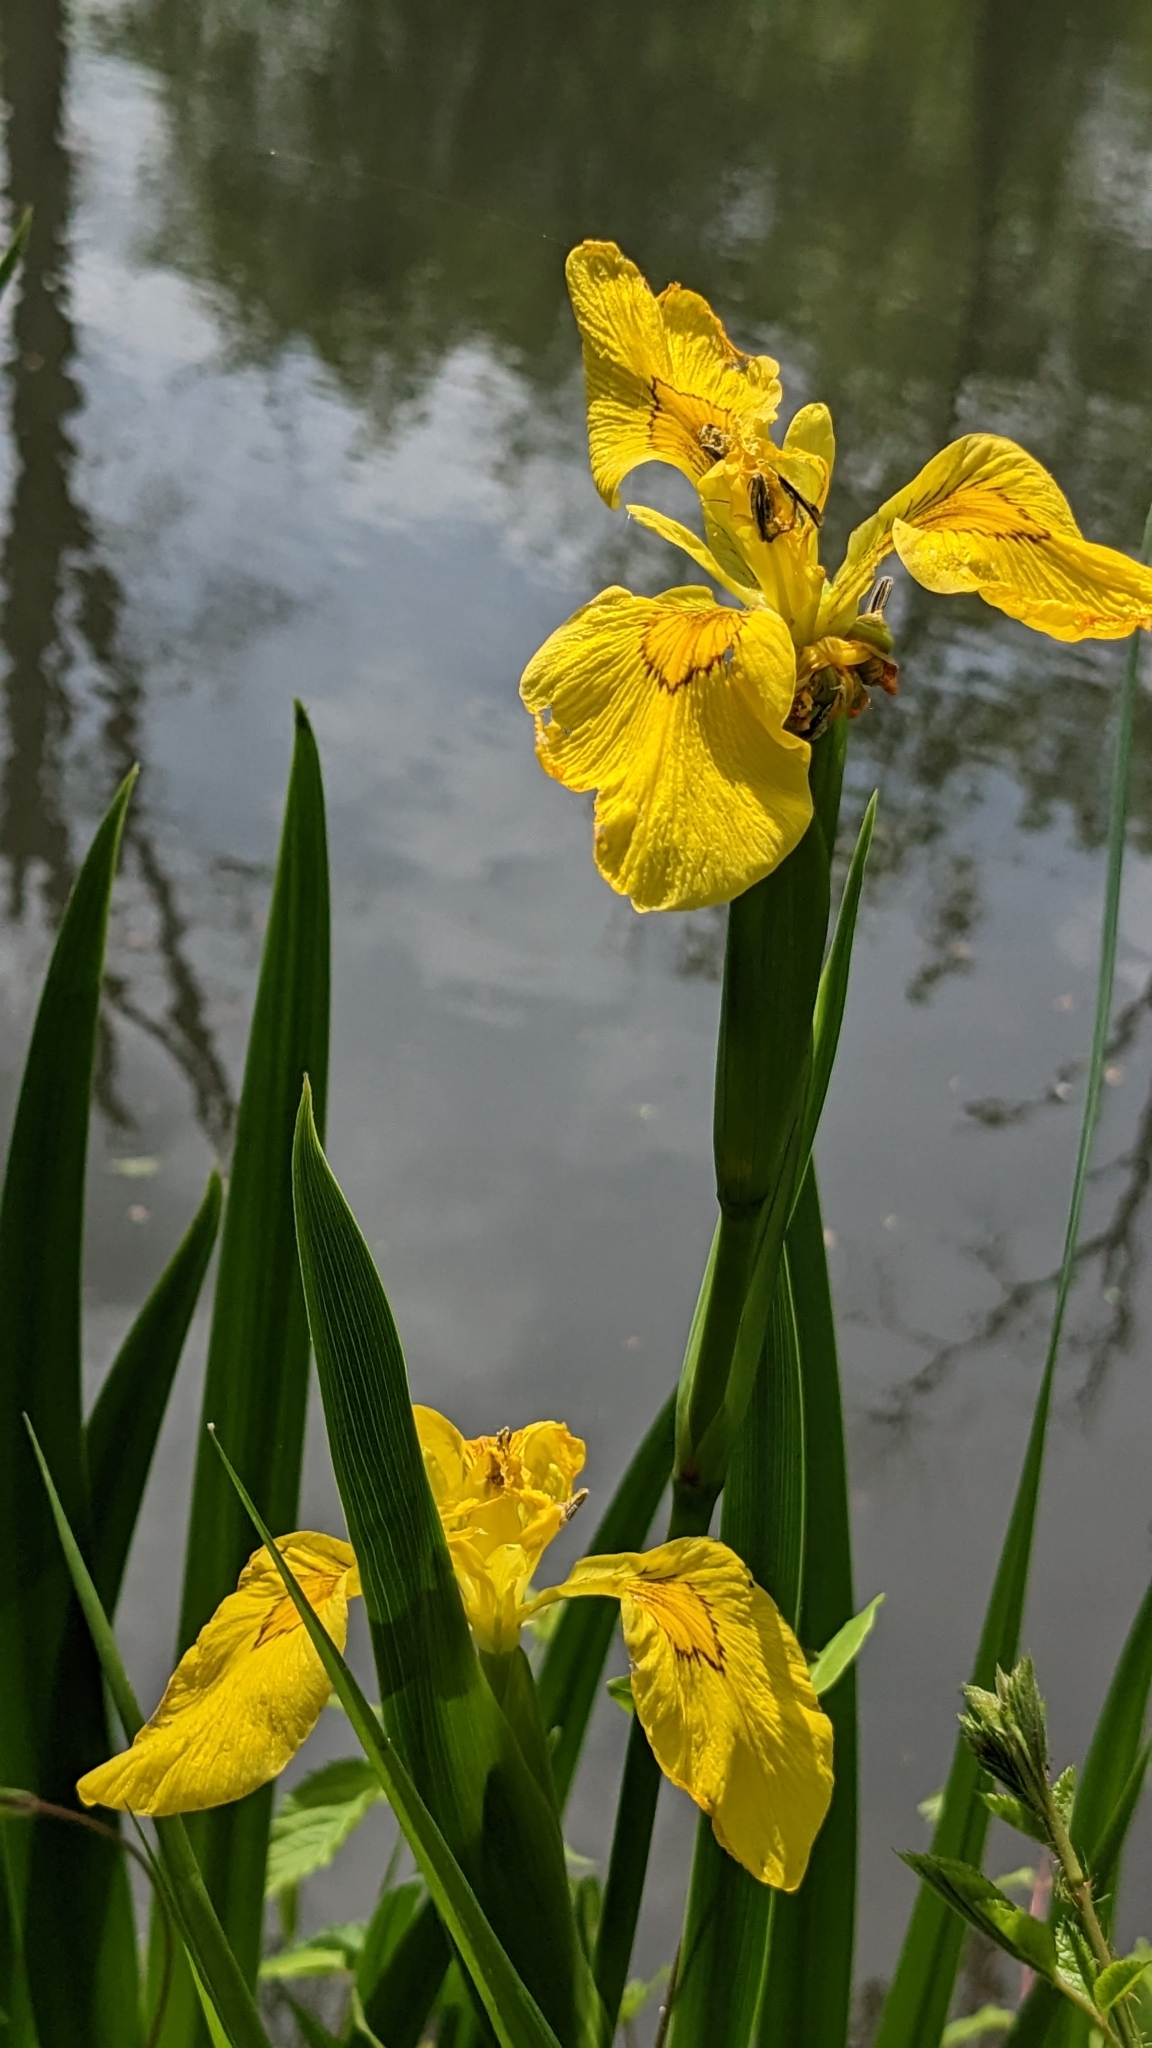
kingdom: Plantae
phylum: Tracheophyta
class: Liliopsida
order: Asparagales
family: Iridaceae
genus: Iris
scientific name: Iris pseudacorus
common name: Yellow flag
